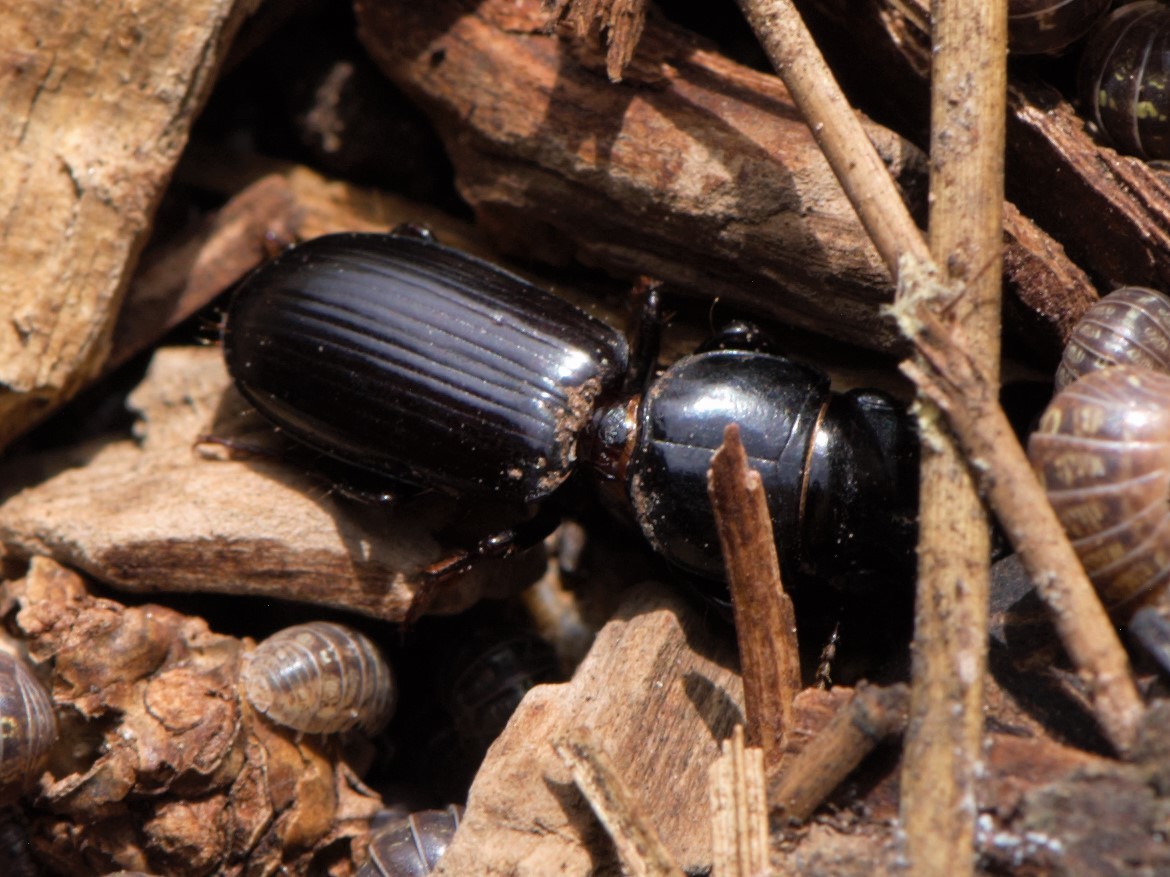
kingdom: Animalia
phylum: Arthropoda
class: Insecta
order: Coleoptera
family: Carabidae
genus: Scarites
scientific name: Scarites
